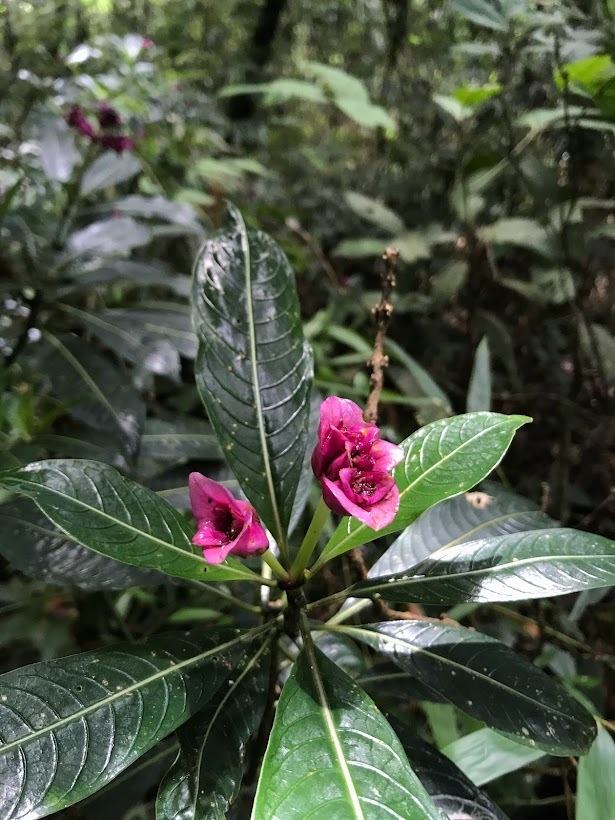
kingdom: Plantae
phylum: Tracheophyta
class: Magnoliopsida
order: Gentianales
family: Rubiaceae
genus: Palicourea
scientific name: Palicourea elata
